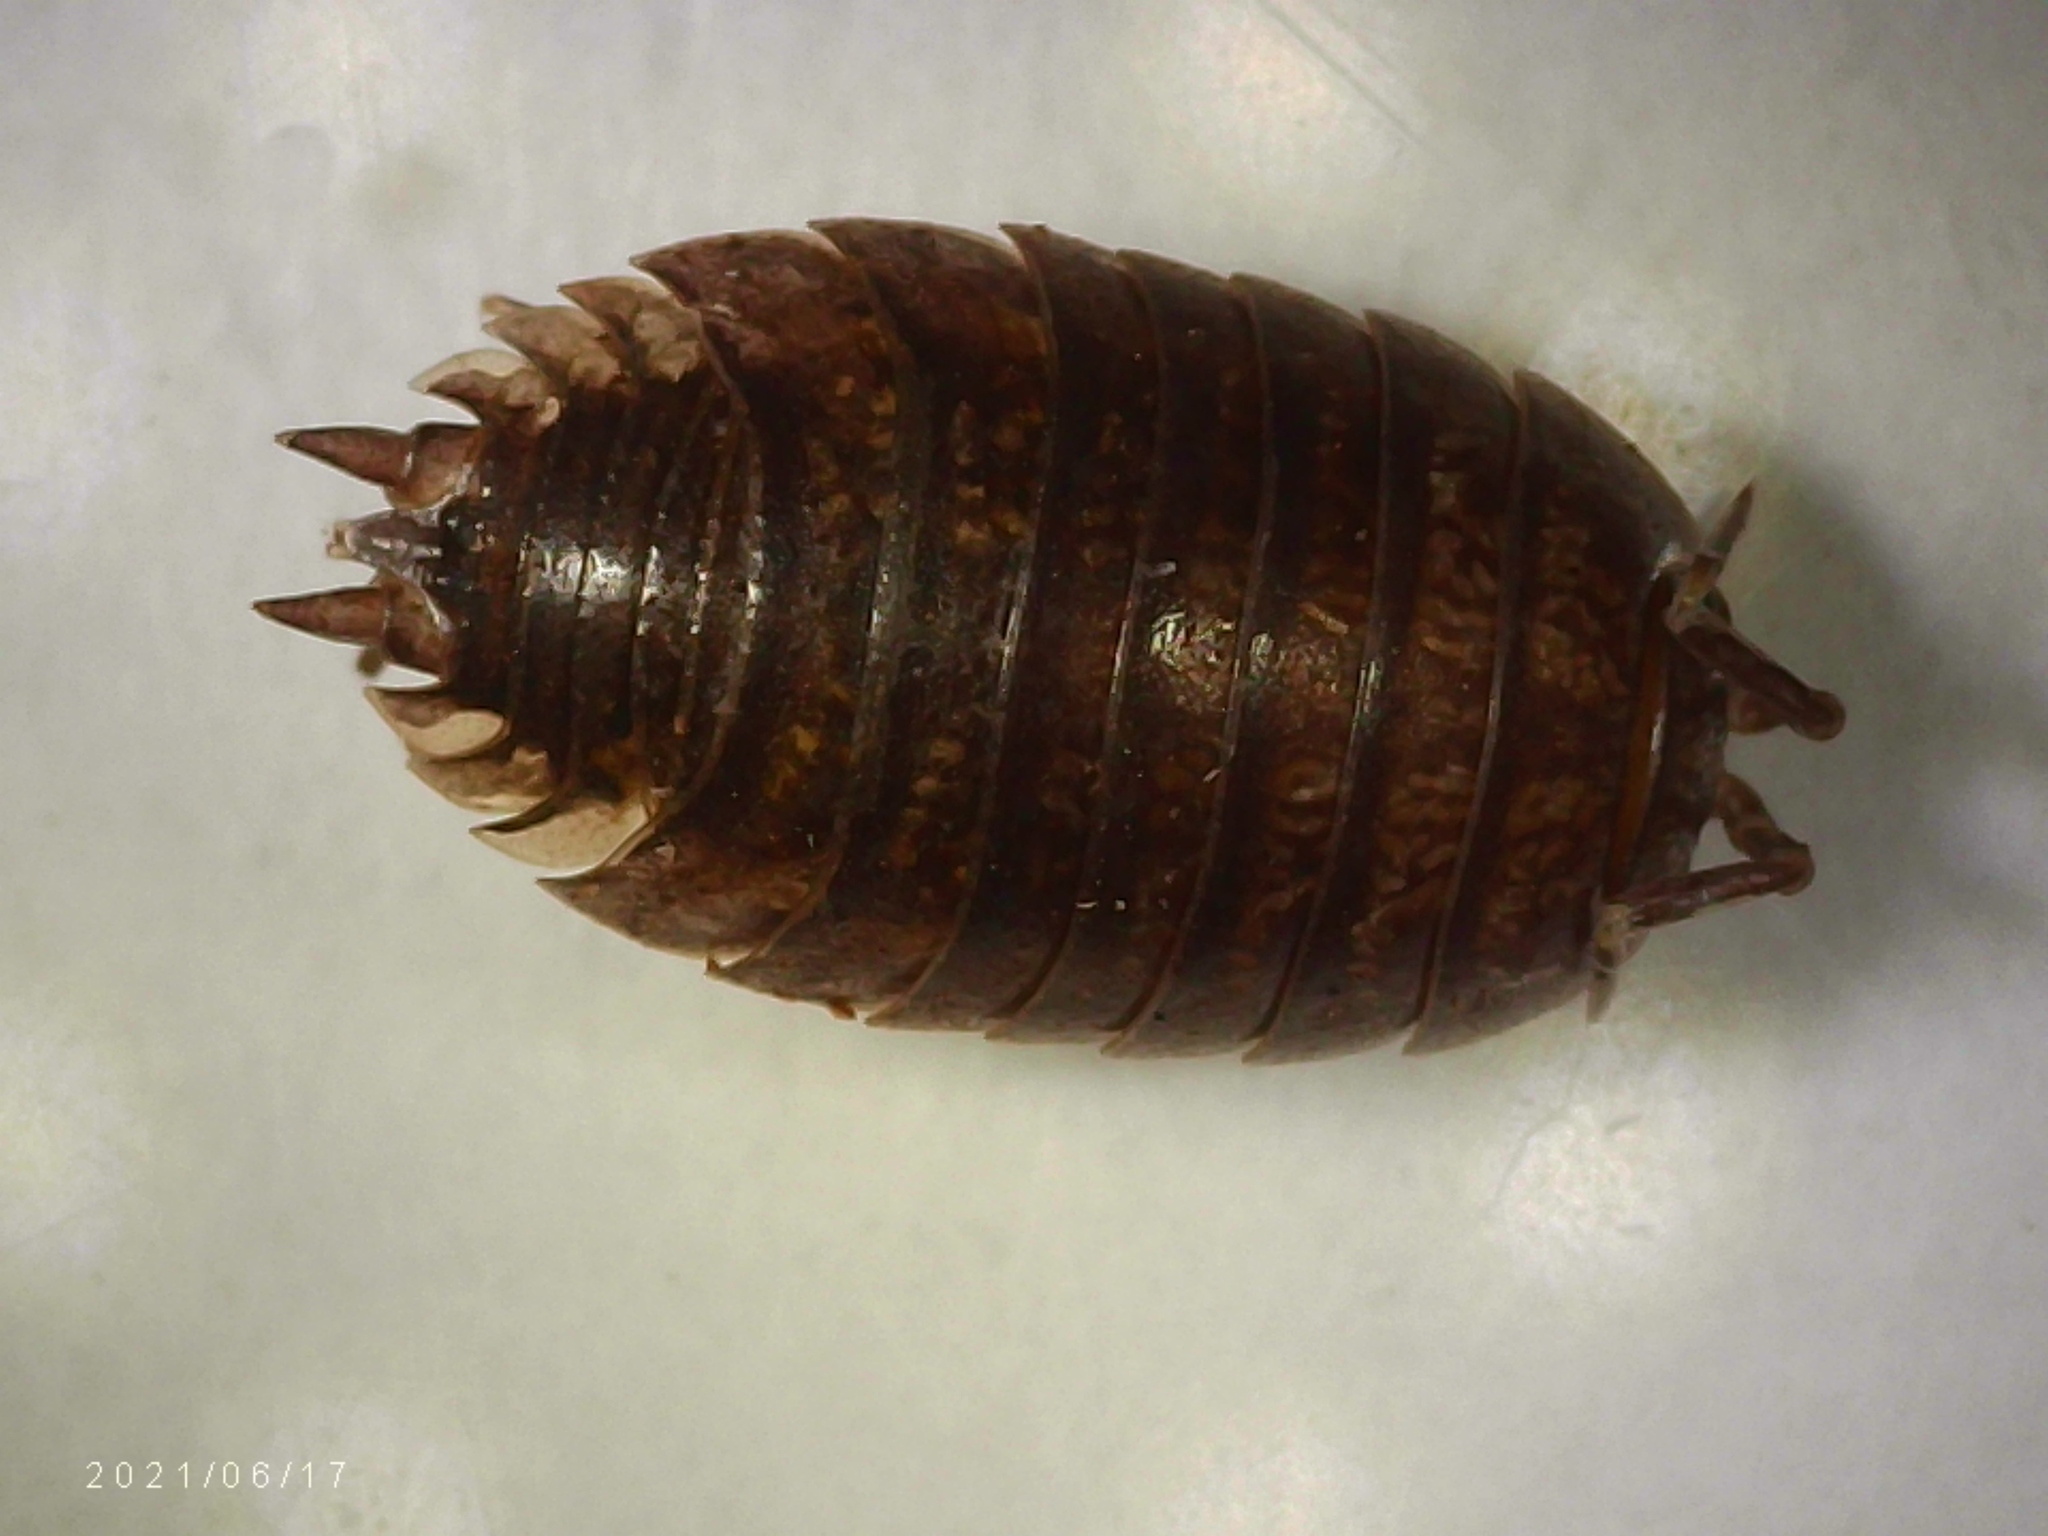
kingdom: Animalia
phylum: Arthropoda
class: Malacostraca
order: Isopoda
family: Porcellionidae
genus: Porcellio
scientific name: Porcellio laevis
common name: Swift woodlouse
